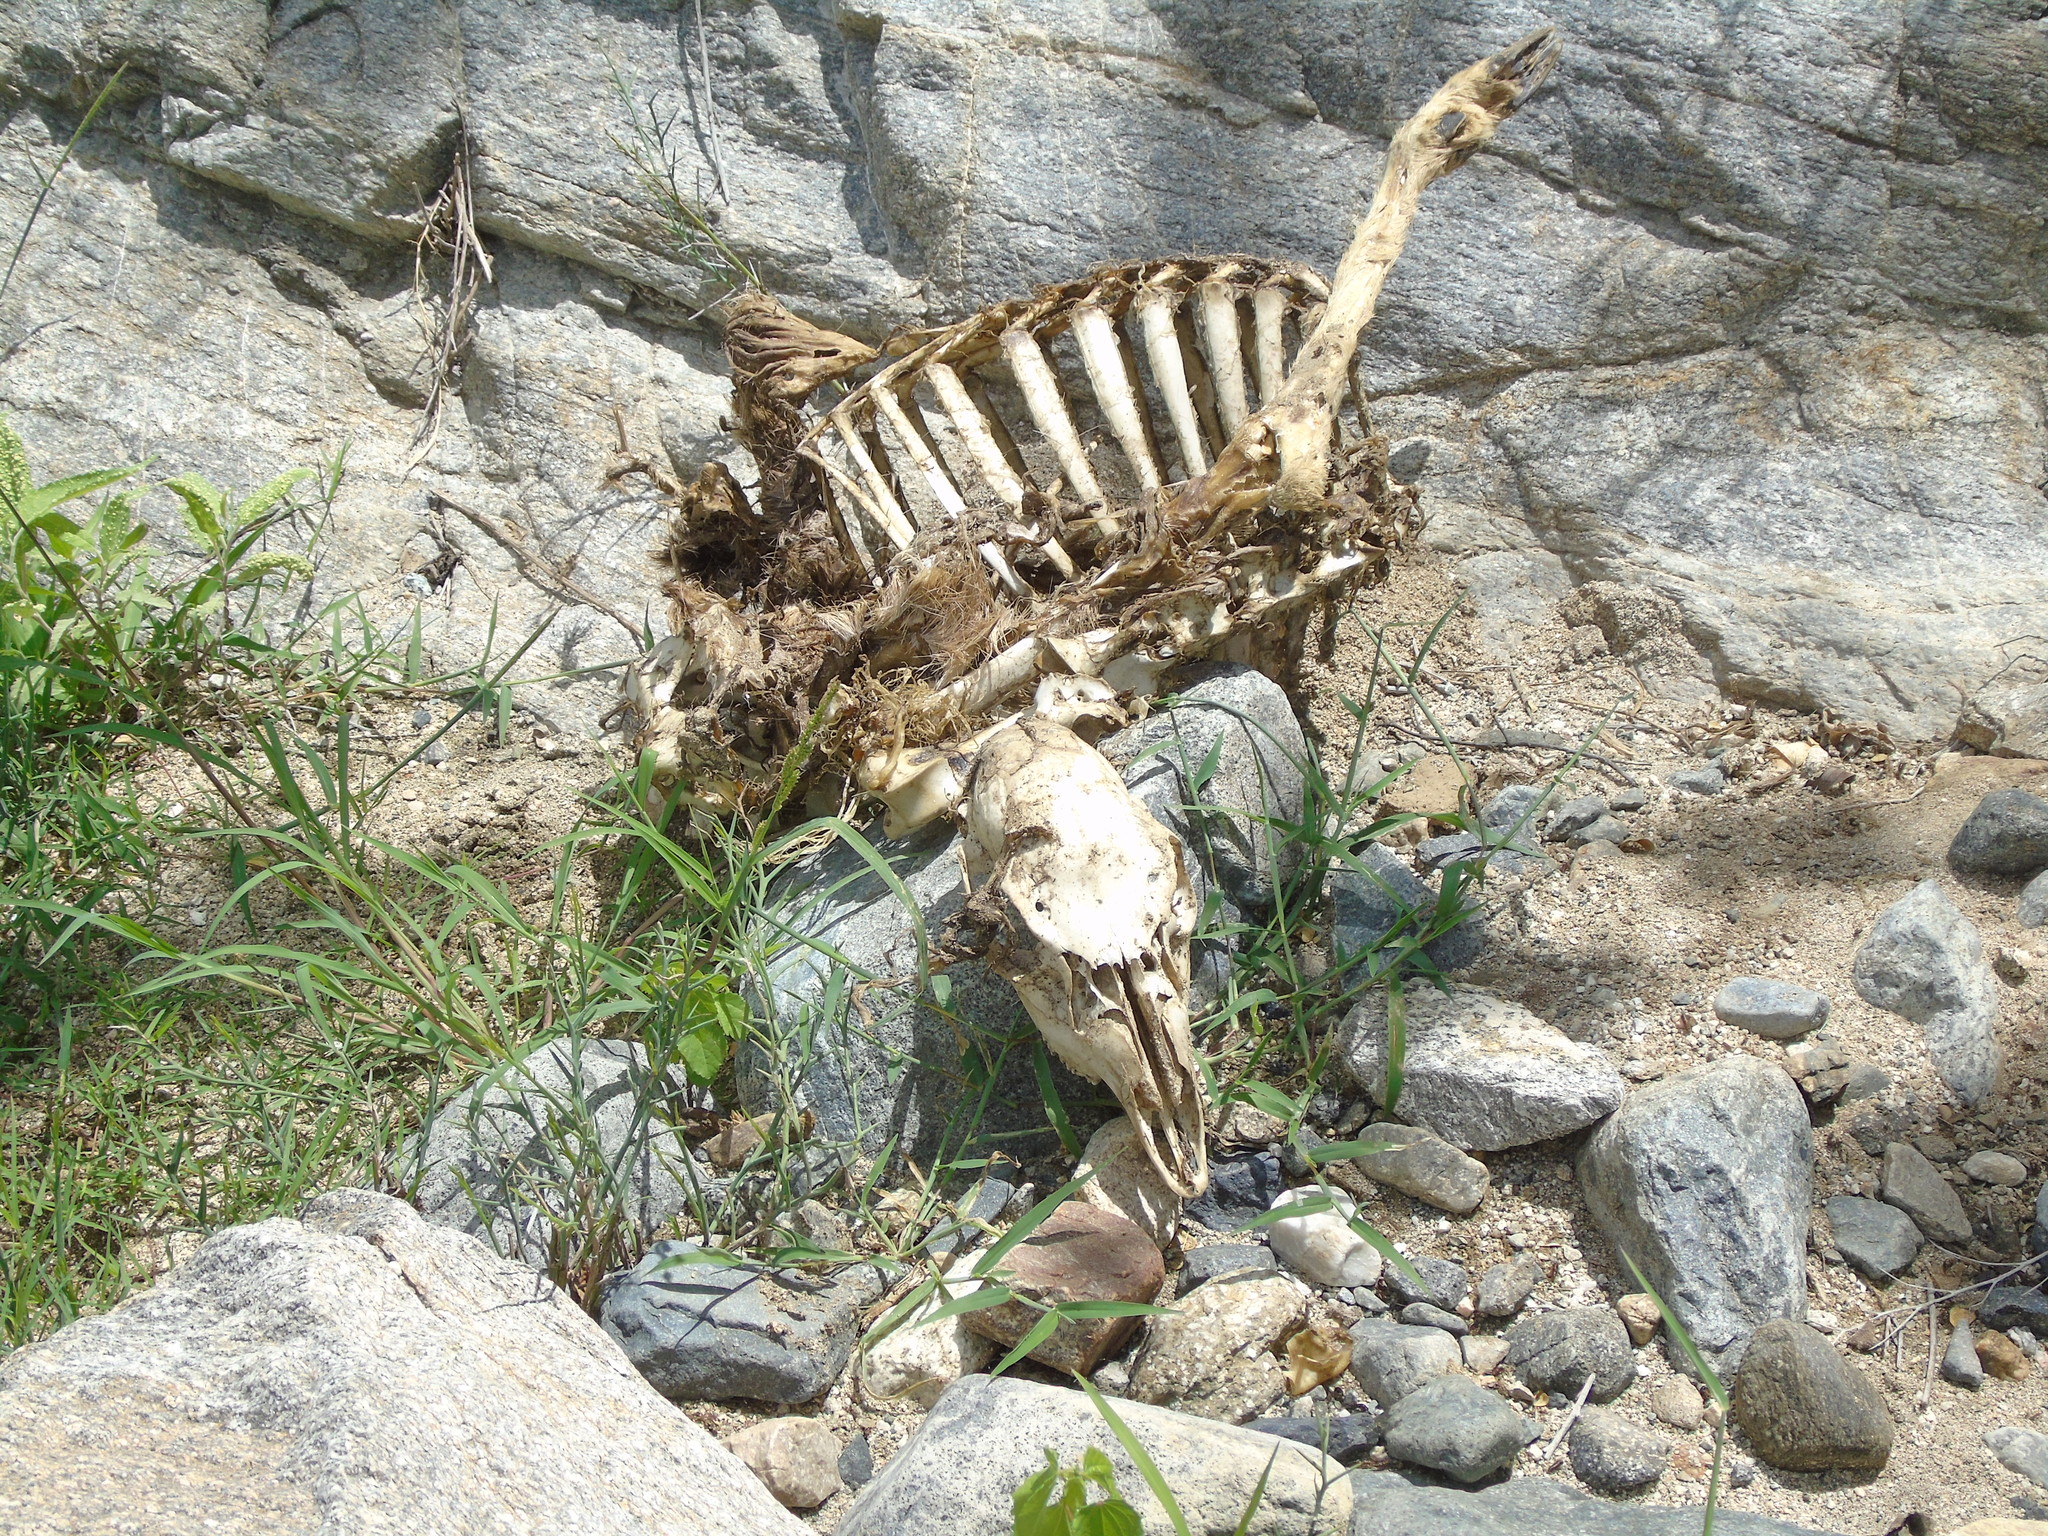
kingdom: Animalia
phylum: Chordata
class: Mammalia
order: Artiodactyla
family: Cervidae
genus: Odocoileus
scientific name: Odocoileus hemionus
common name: Mule deer
